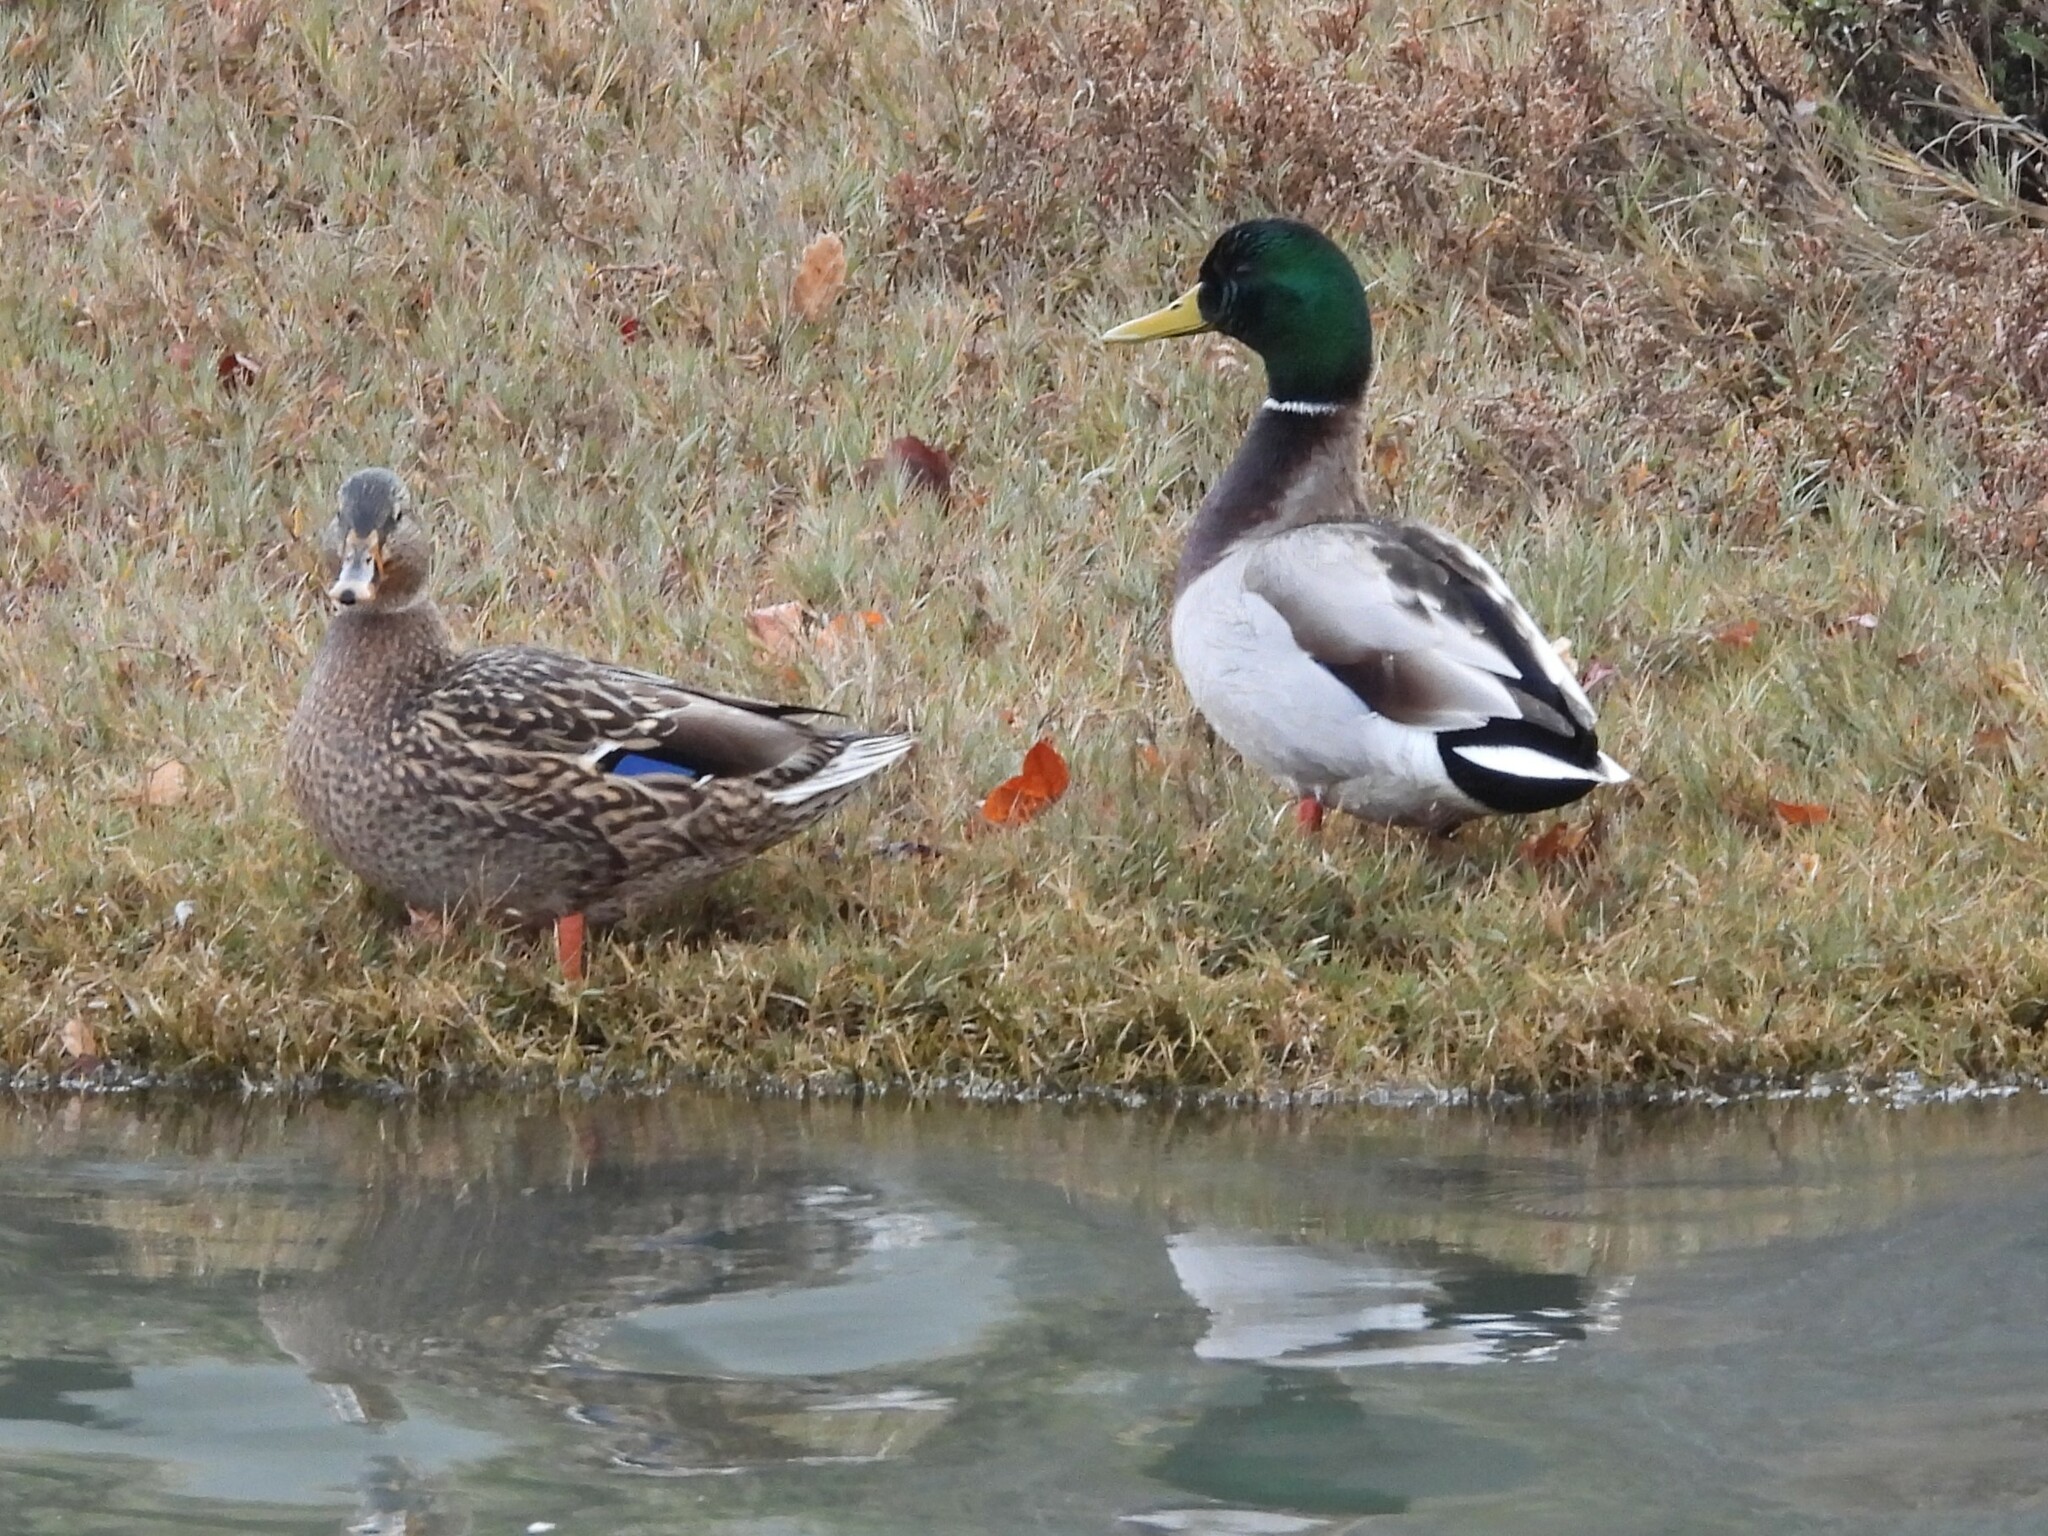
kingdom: Animalia
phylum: Chordata
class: Aves
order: Anseriformes
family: Anatidae
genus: Anas
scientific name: Anas platyrhynchos
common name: Mallard
